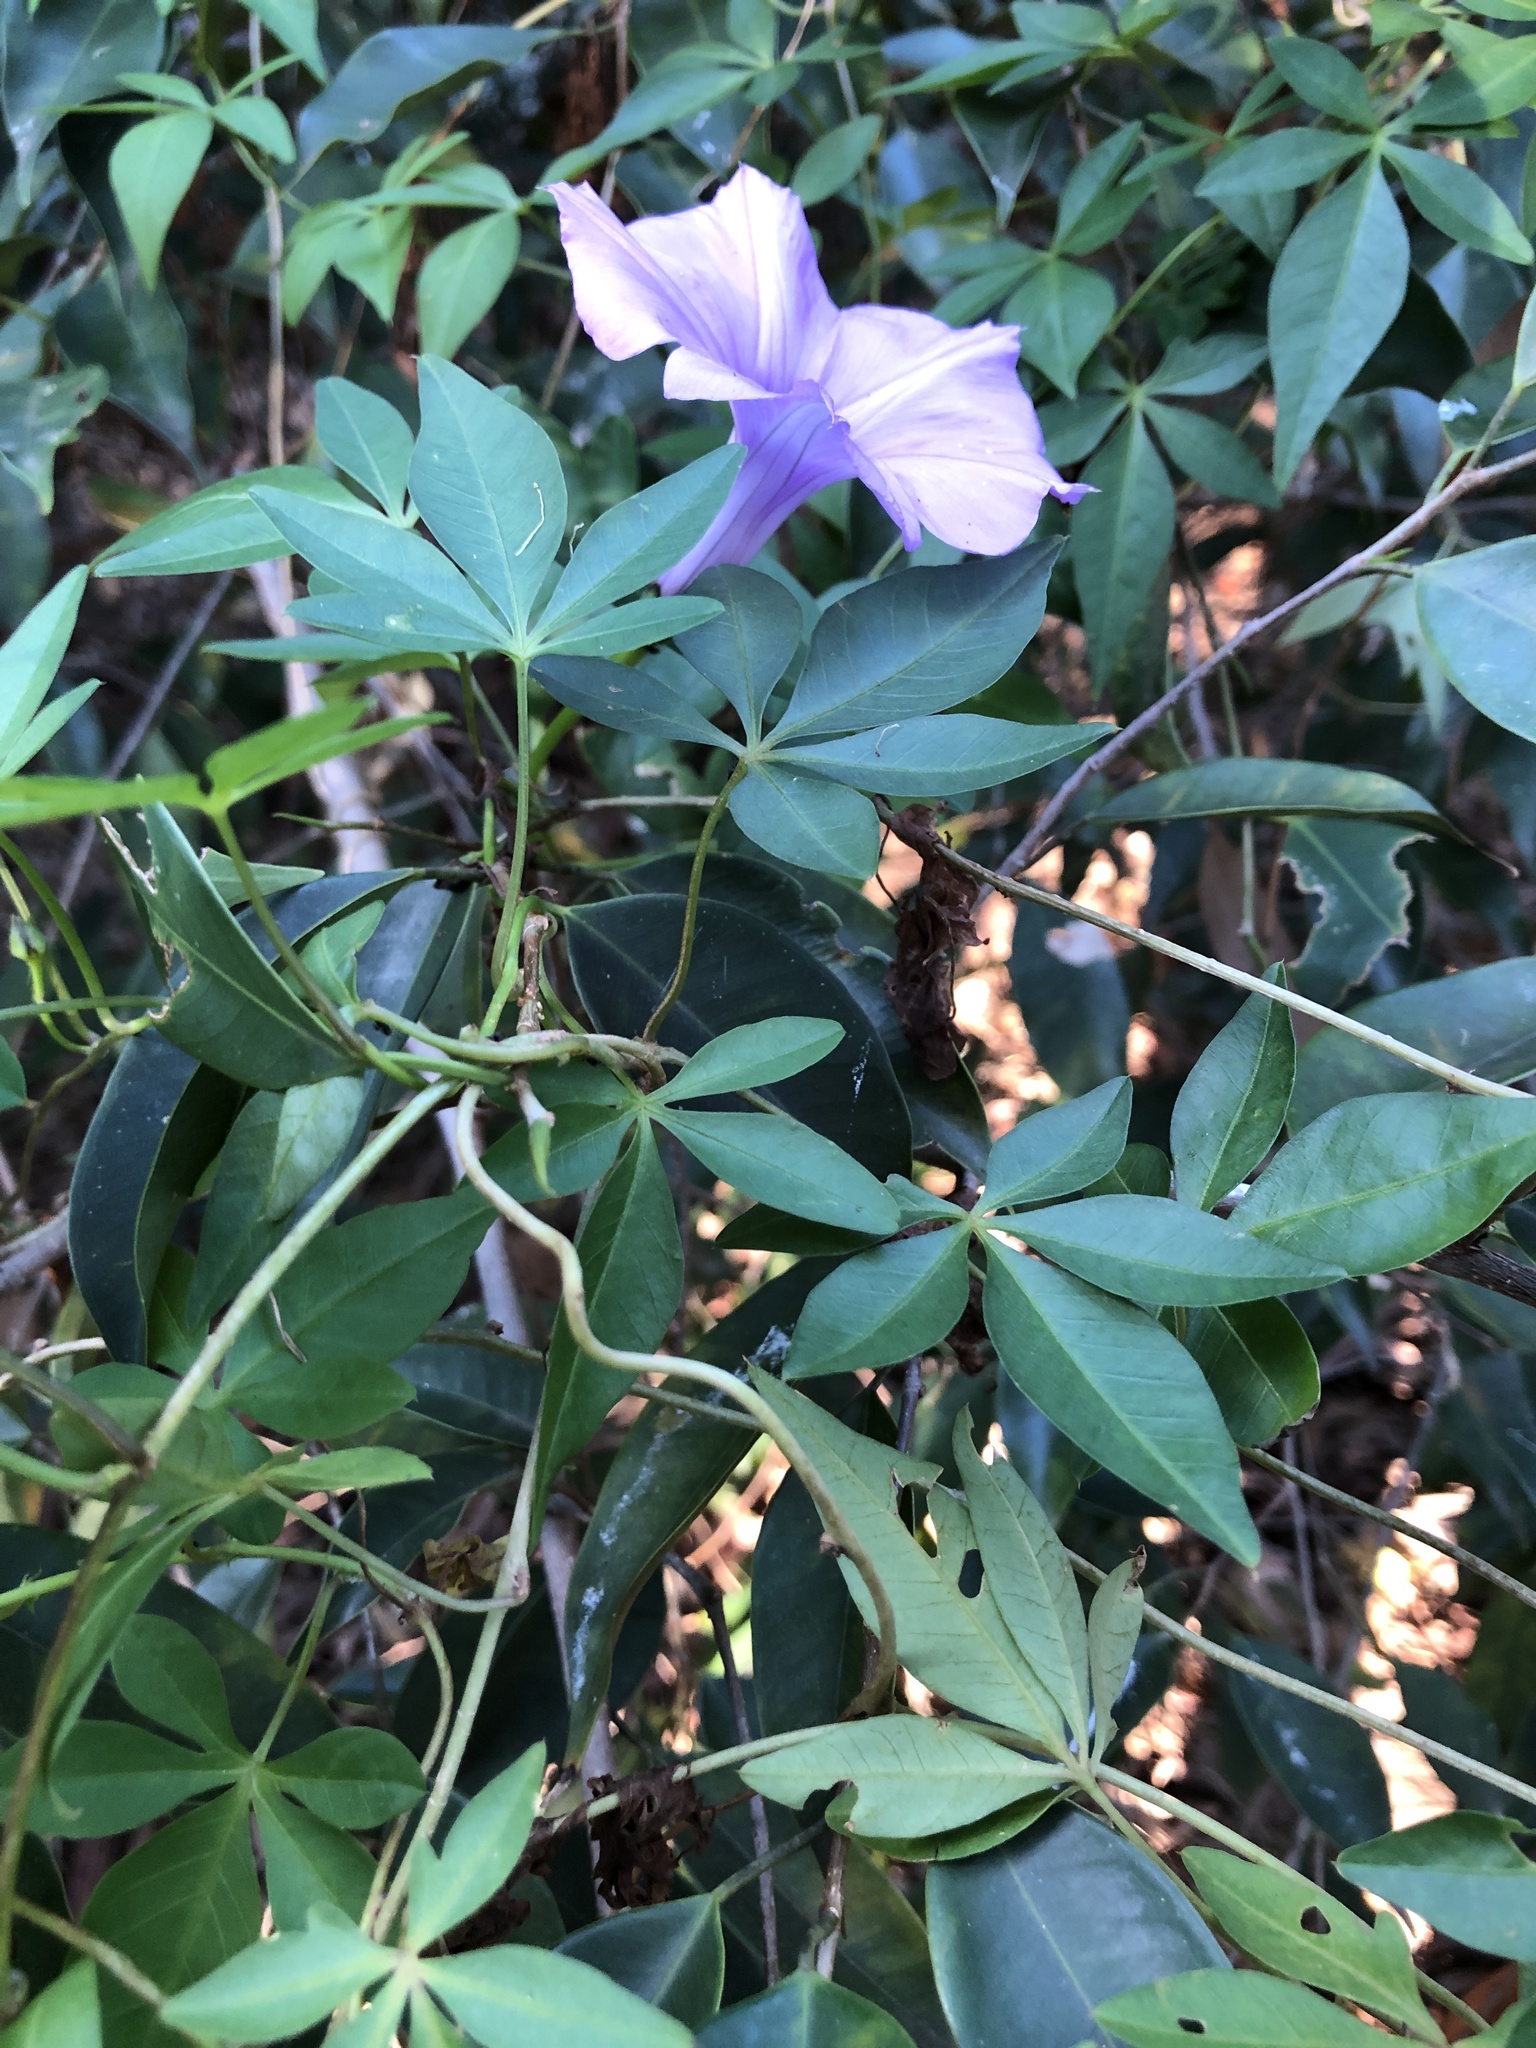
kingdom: Plantae
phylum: Tracheophyta
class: Magnoliopsida
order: Solanales
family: Convolvulaceae
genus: Ipomoea
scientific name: Ipomoea cairica
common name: Mile a minute vine
